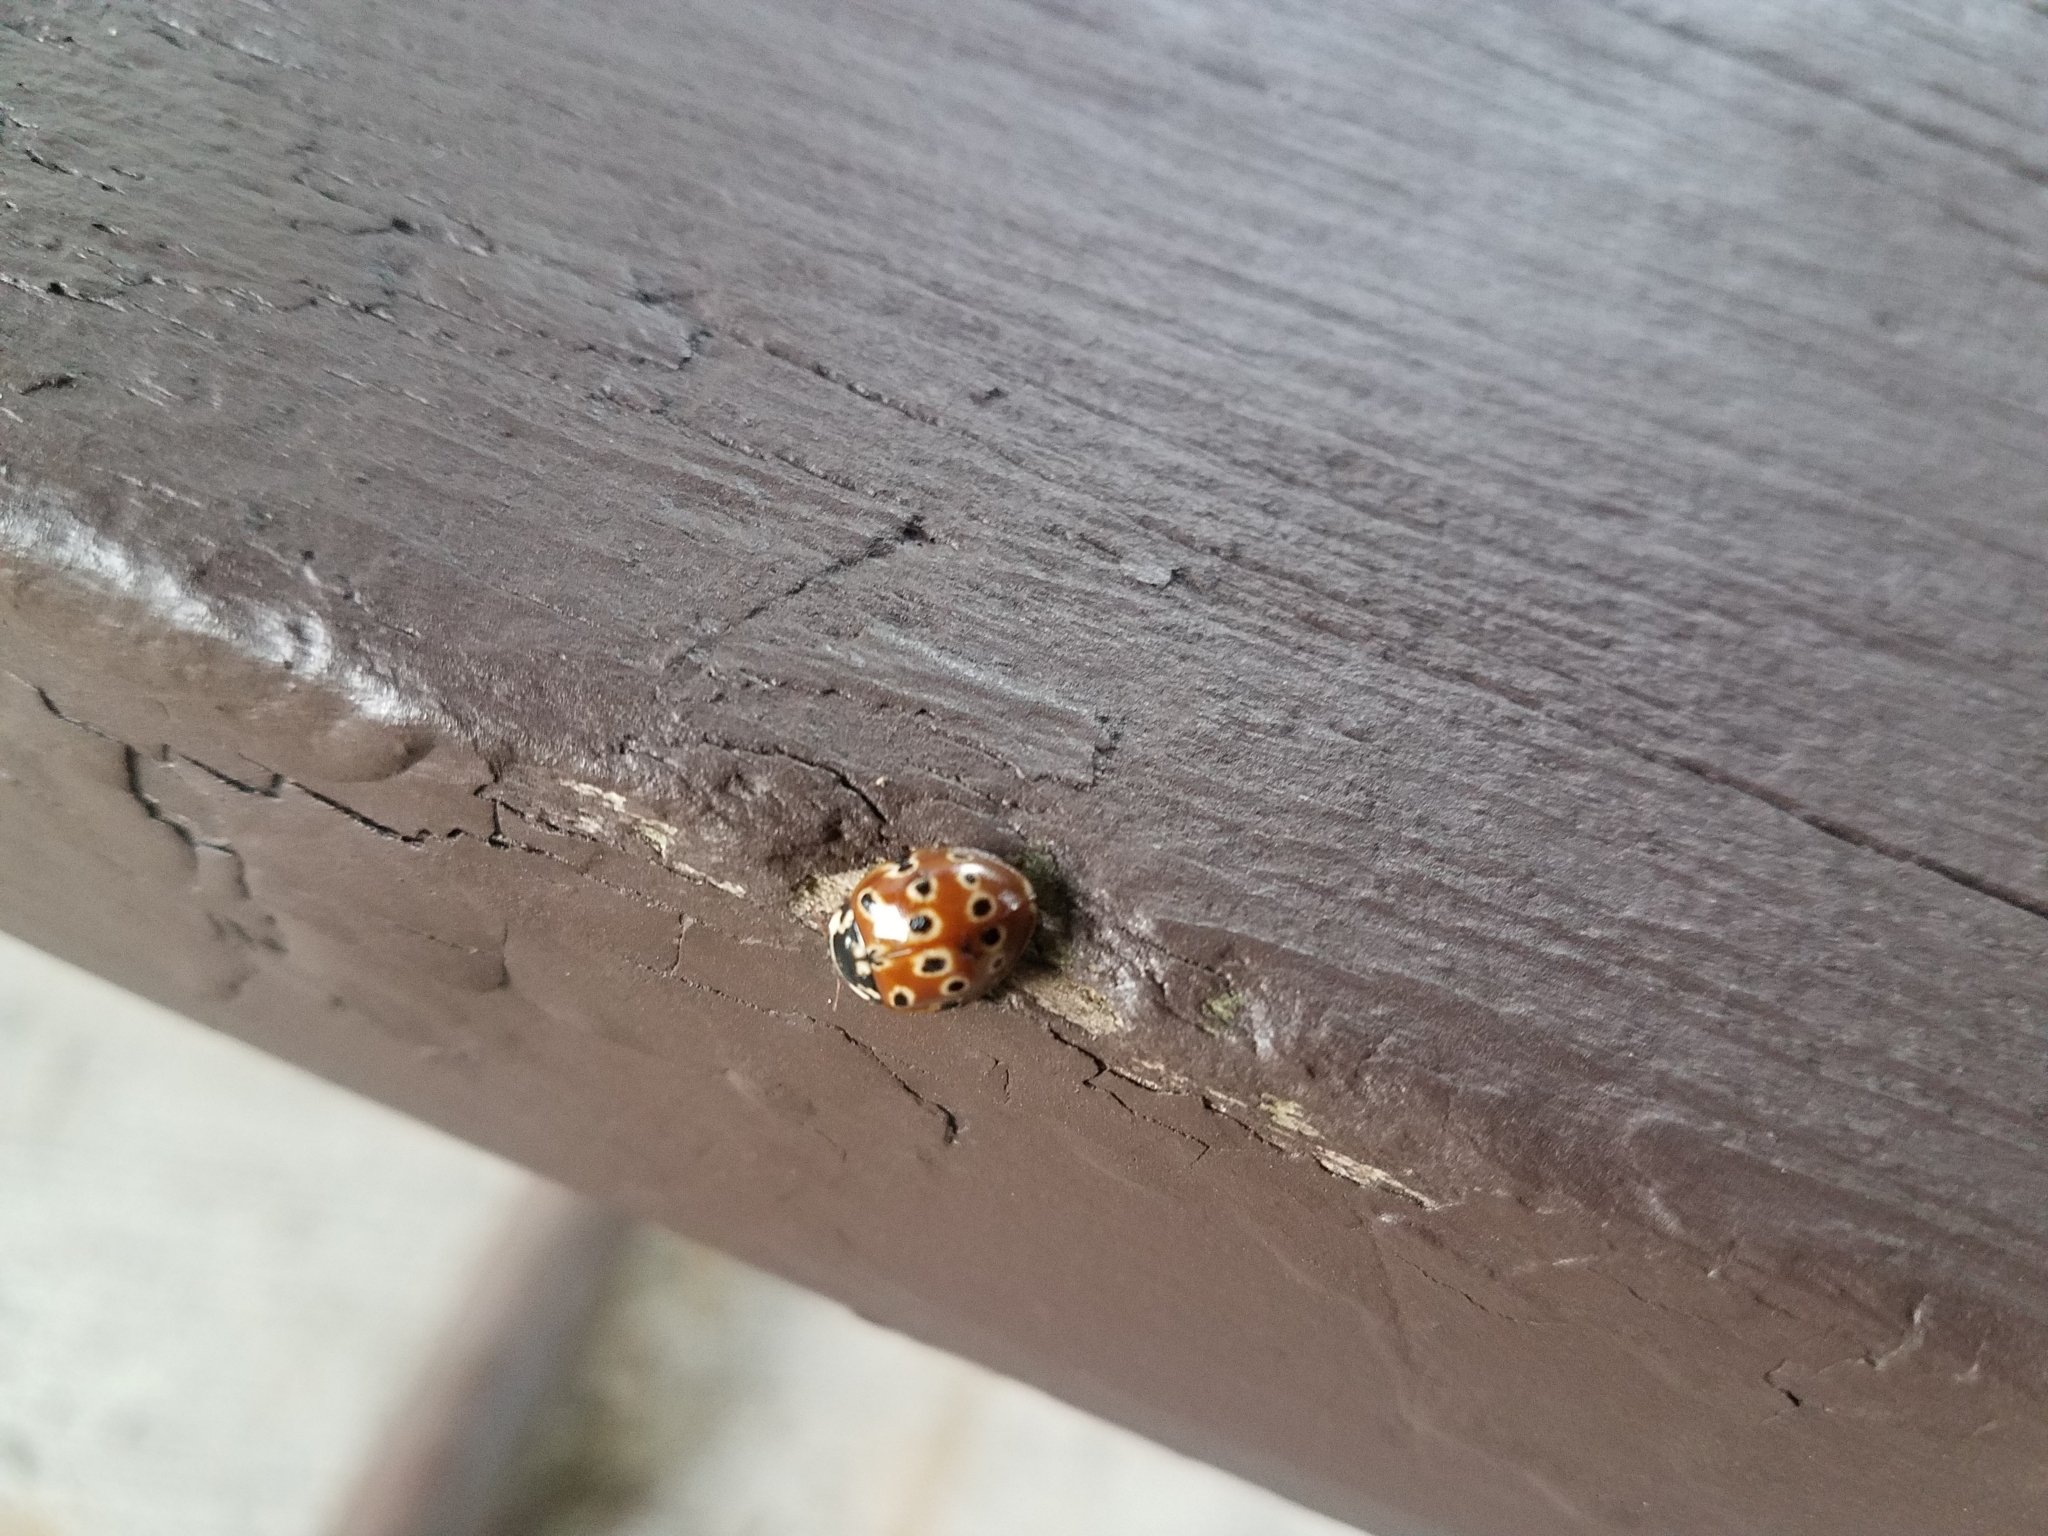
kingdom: Animalia
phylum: Arthropoda
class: Insecta
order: Coleoptera
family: Coccinellidae
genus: Anatis
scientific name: Anatis mali
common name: Eye-spotted lady beetle
